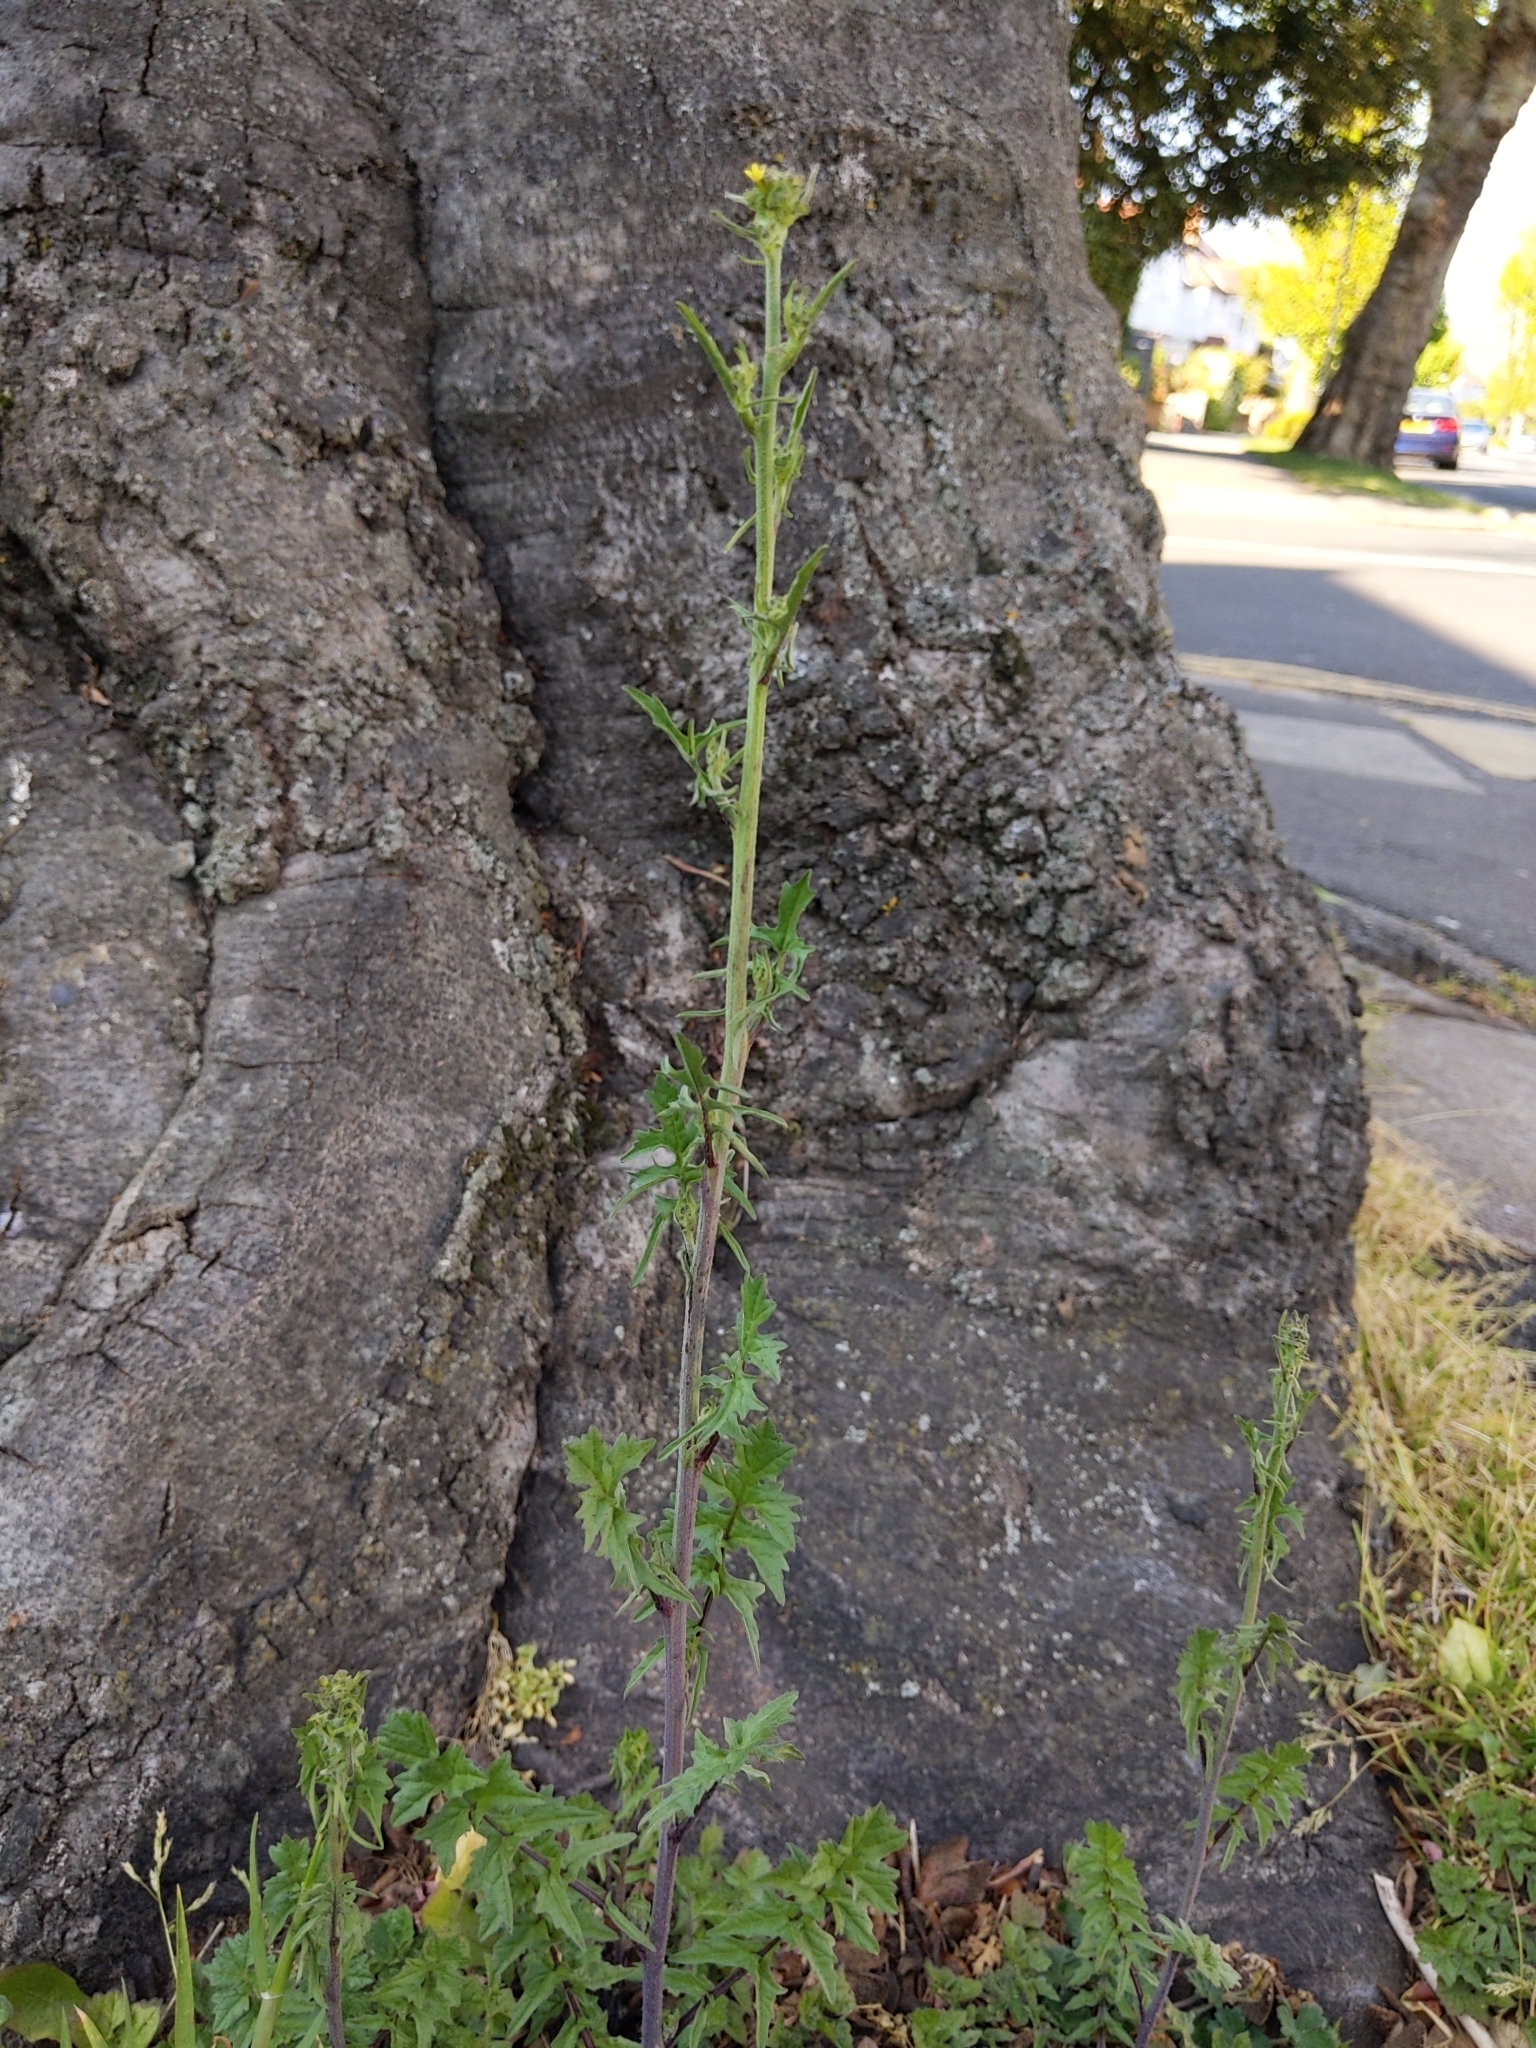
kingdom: Plantae
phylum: Tracheophyta
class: Magnoliopsida
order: Brassicales
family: Brassicaceae
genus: Sisymbrium
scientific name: Sisymbrium officinale
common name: Hedge mustard
